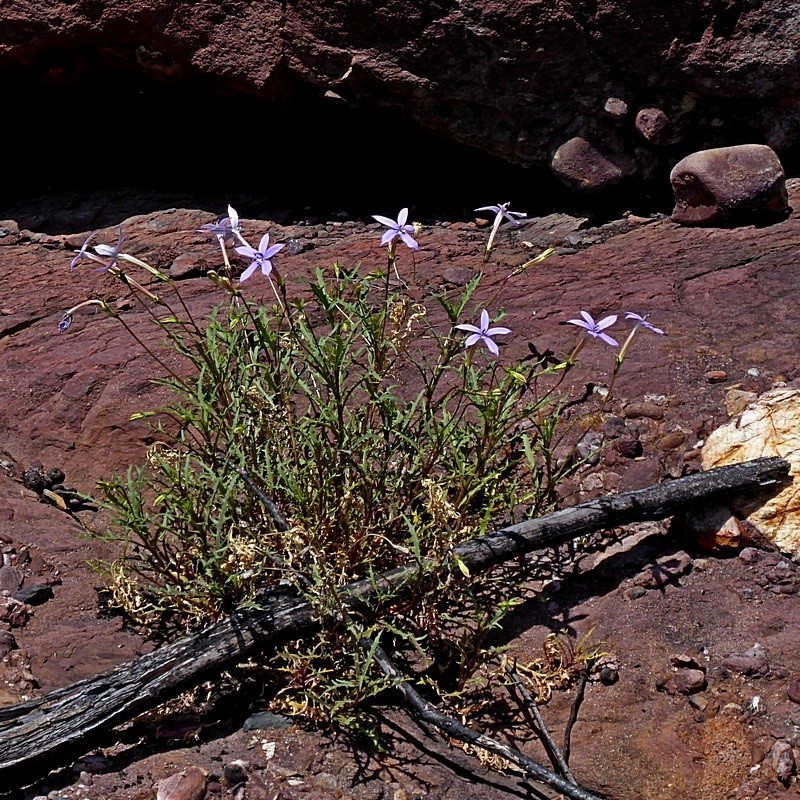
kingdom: Plantae
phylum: Tracheophyta
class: Magnoliopsida
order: Asterales
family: Campanulaceae
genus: Lithotoma
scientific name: Lithotoma axillaris
